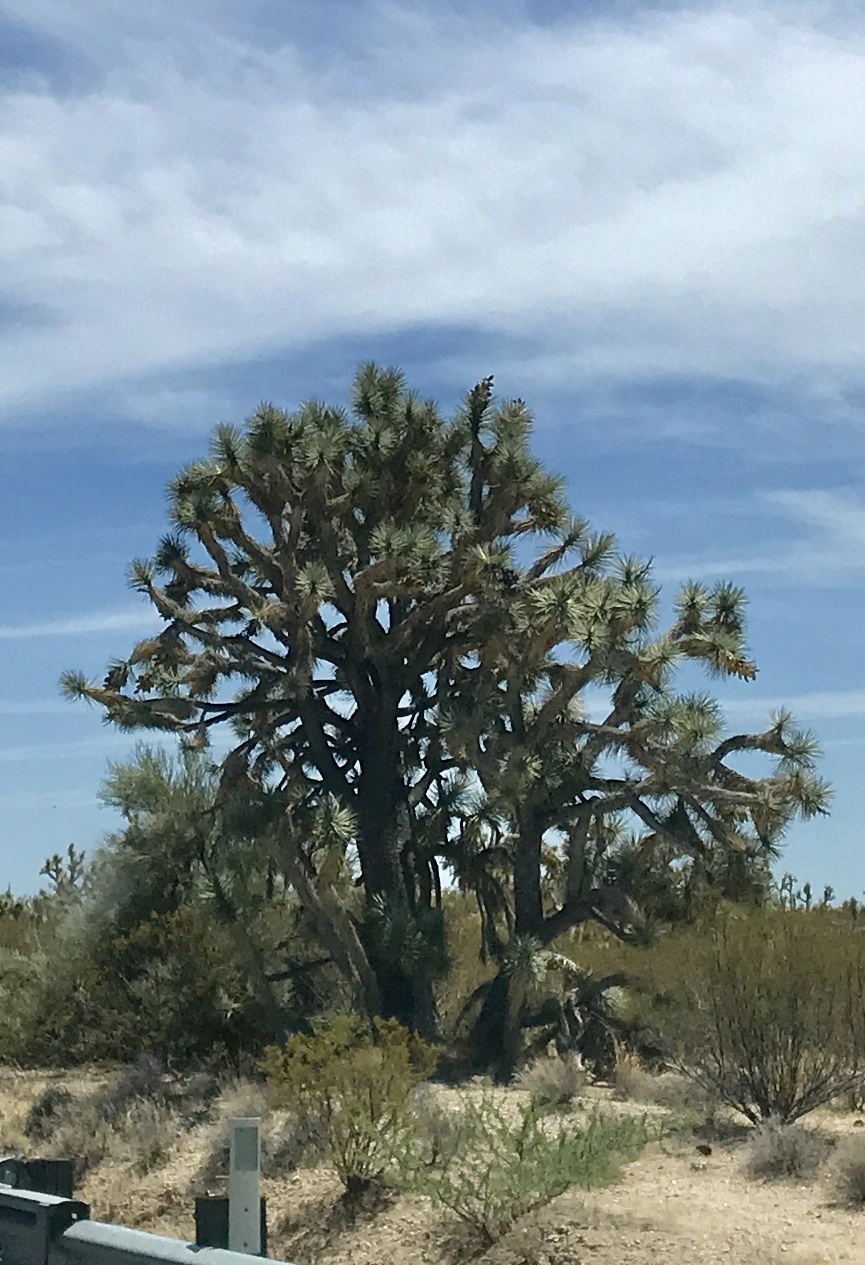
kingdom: Plantae
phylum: Tracheophyta
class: Liliopsida
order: Asparagales
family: Asparagaceae
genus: Yucca
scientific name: Yucca brevifolia
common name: Joshua tree
